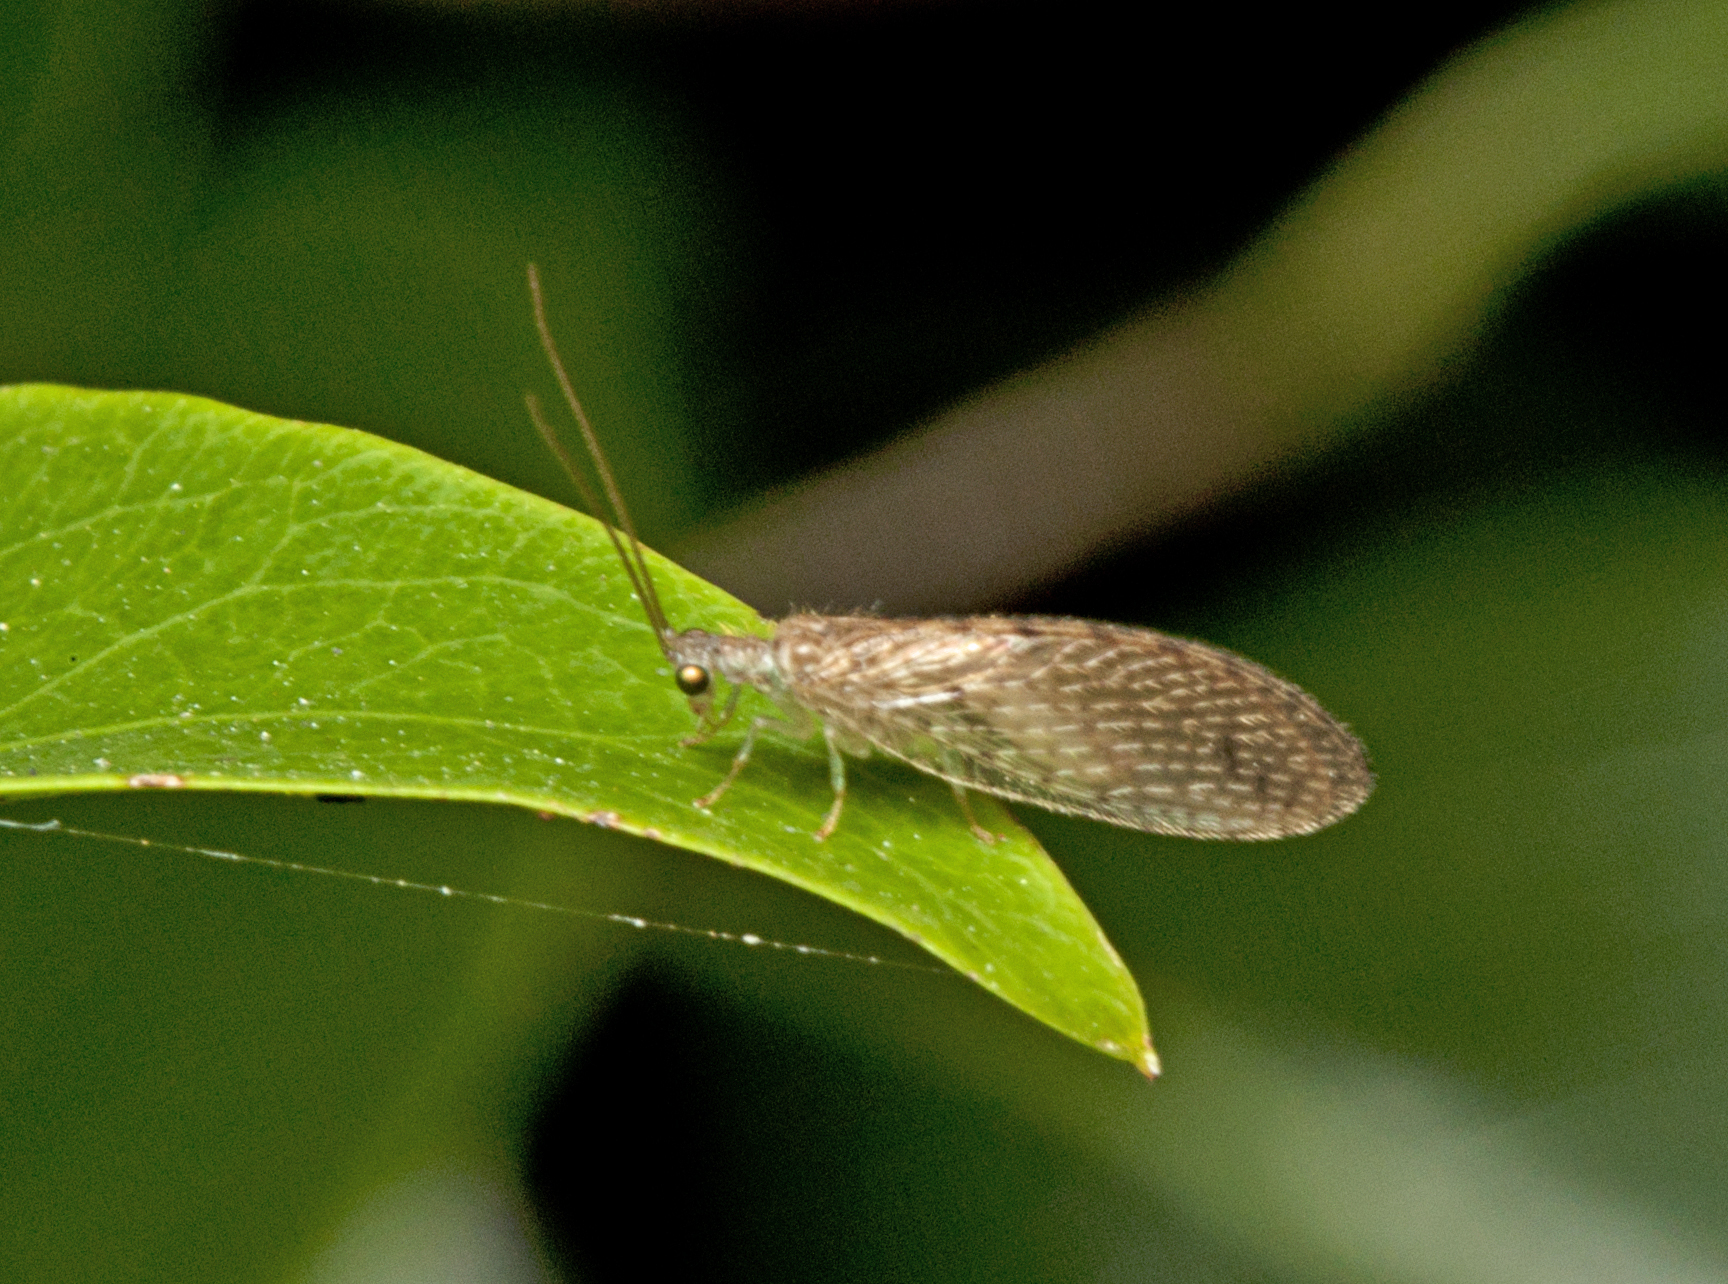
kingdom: Animalia
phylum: Arthropoda
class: Insecta
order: Neuroptera
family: Hemerobiidae
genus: Micromus
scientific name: Micromus tasmaniae
